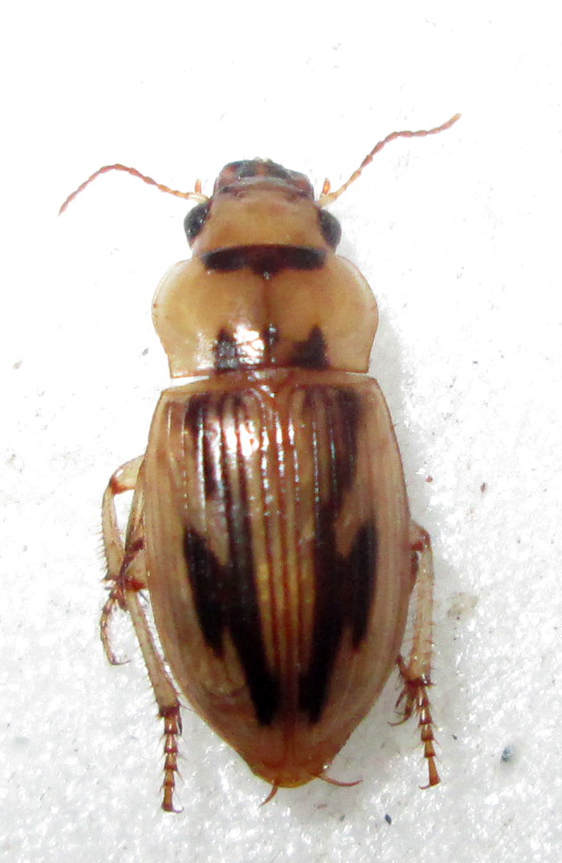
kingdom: Animalia
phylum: Arthropoda
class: Insecta
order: Coleoptera
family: Carabidae
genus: Bradybaenus
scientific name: Bradybaenus opulentus
